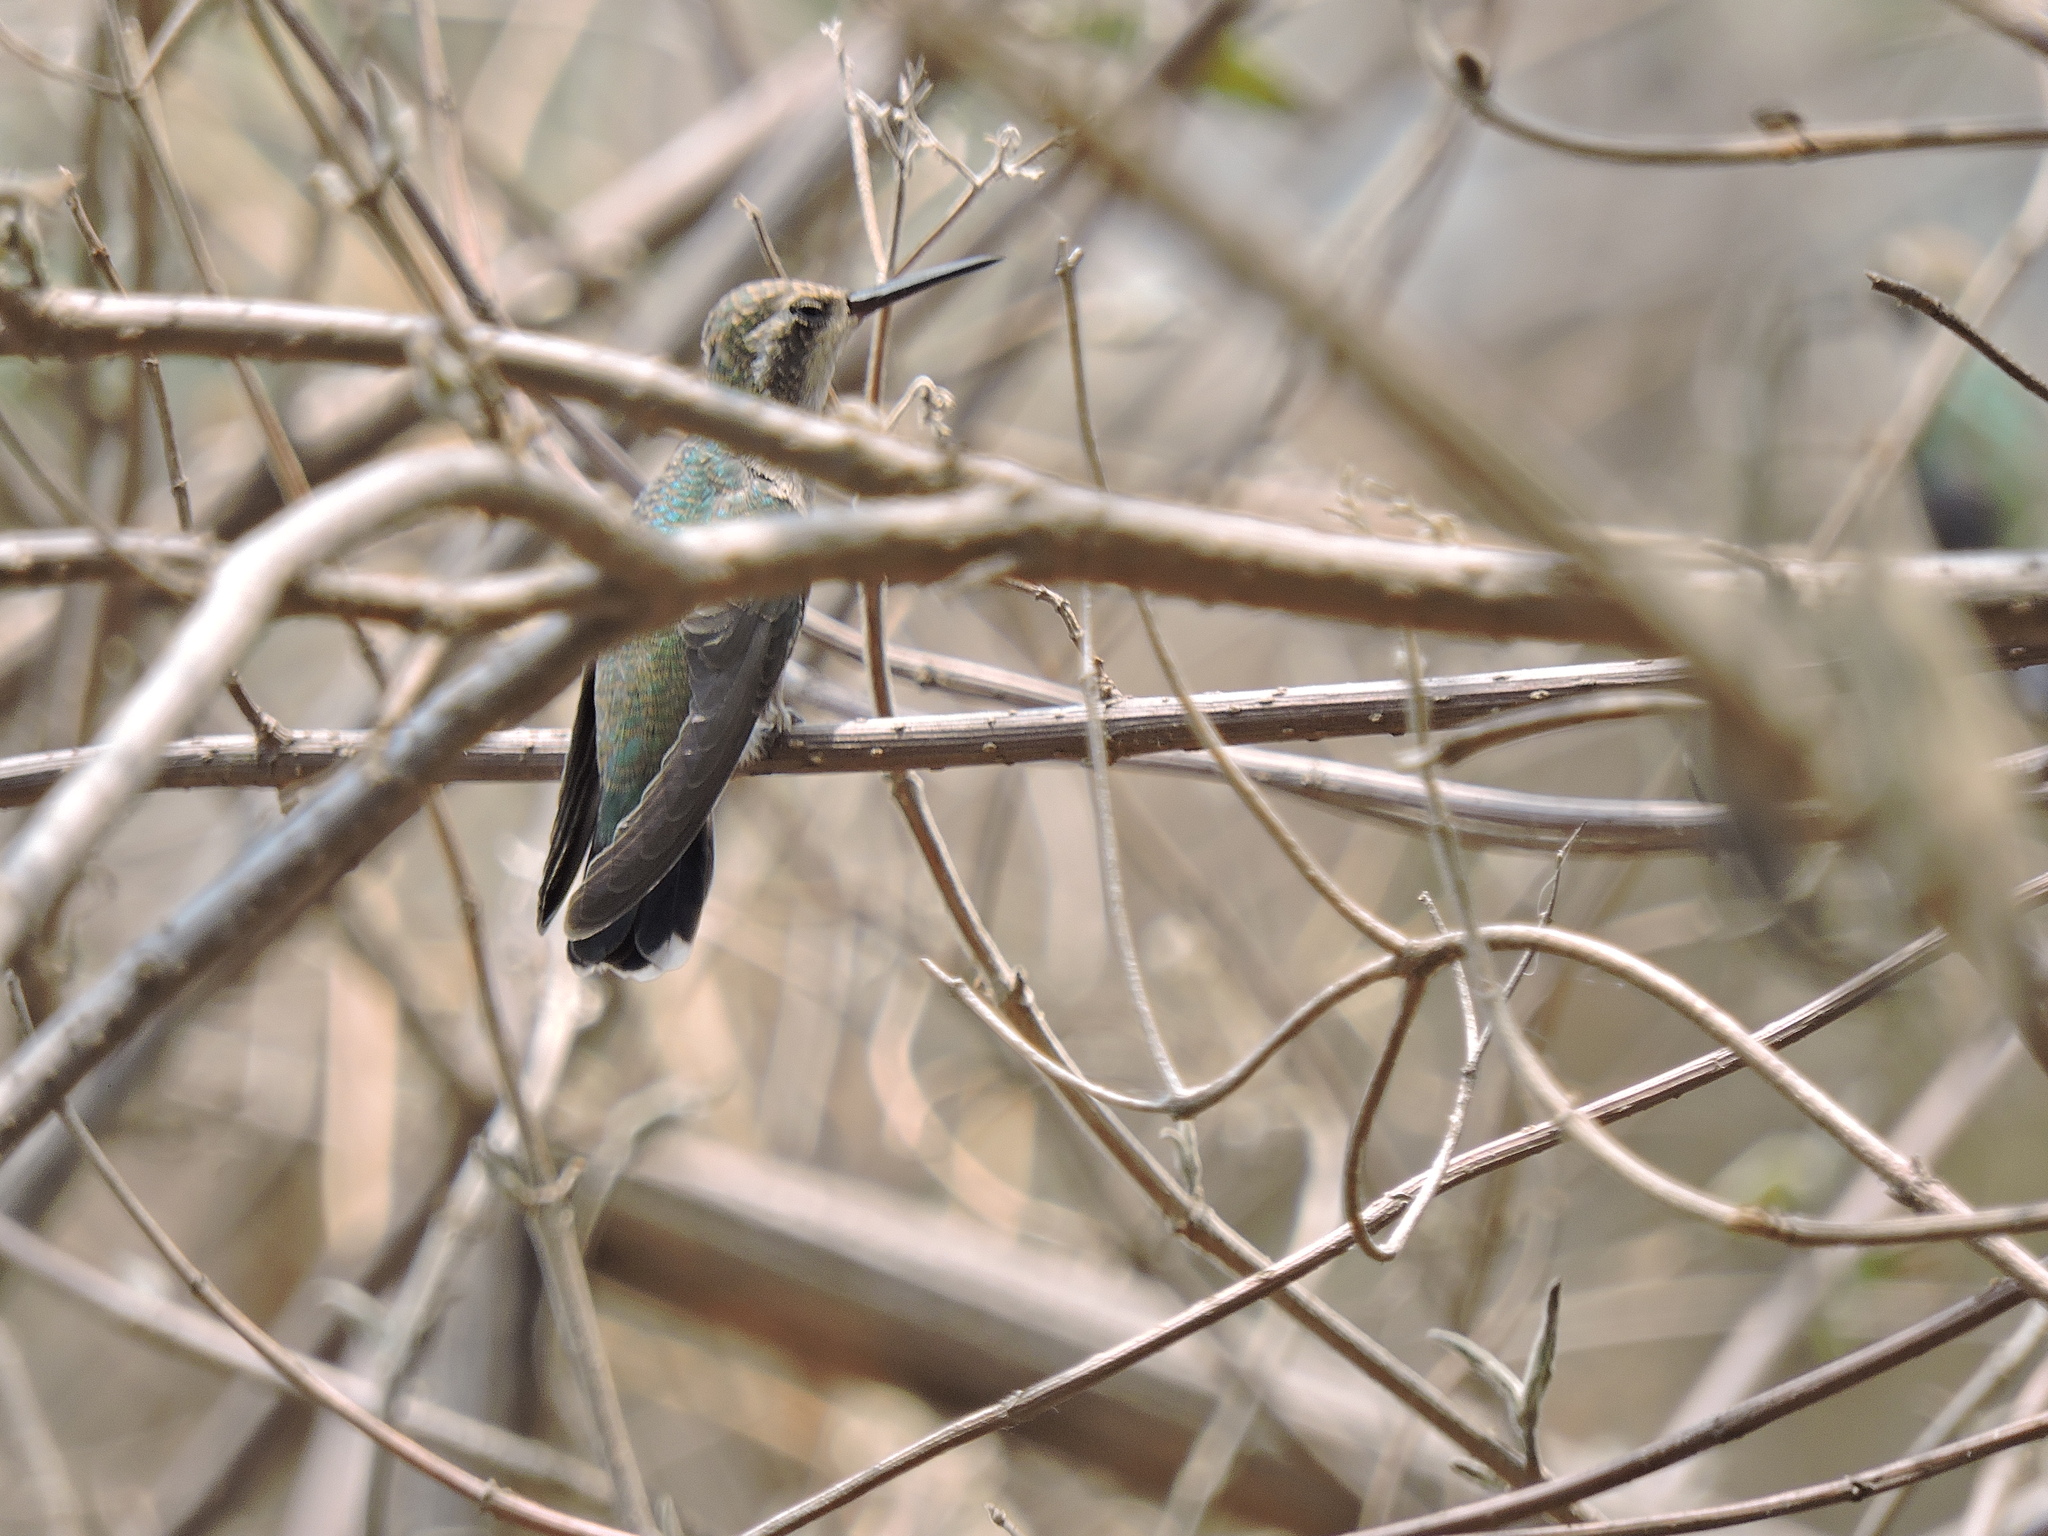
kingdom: Animalia
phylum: Chordata
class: Aves
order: Apodiformes
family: Trochilidae
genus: Lampornis
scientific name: Lampornis clemenciae
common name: Blue-throated mountaingem
